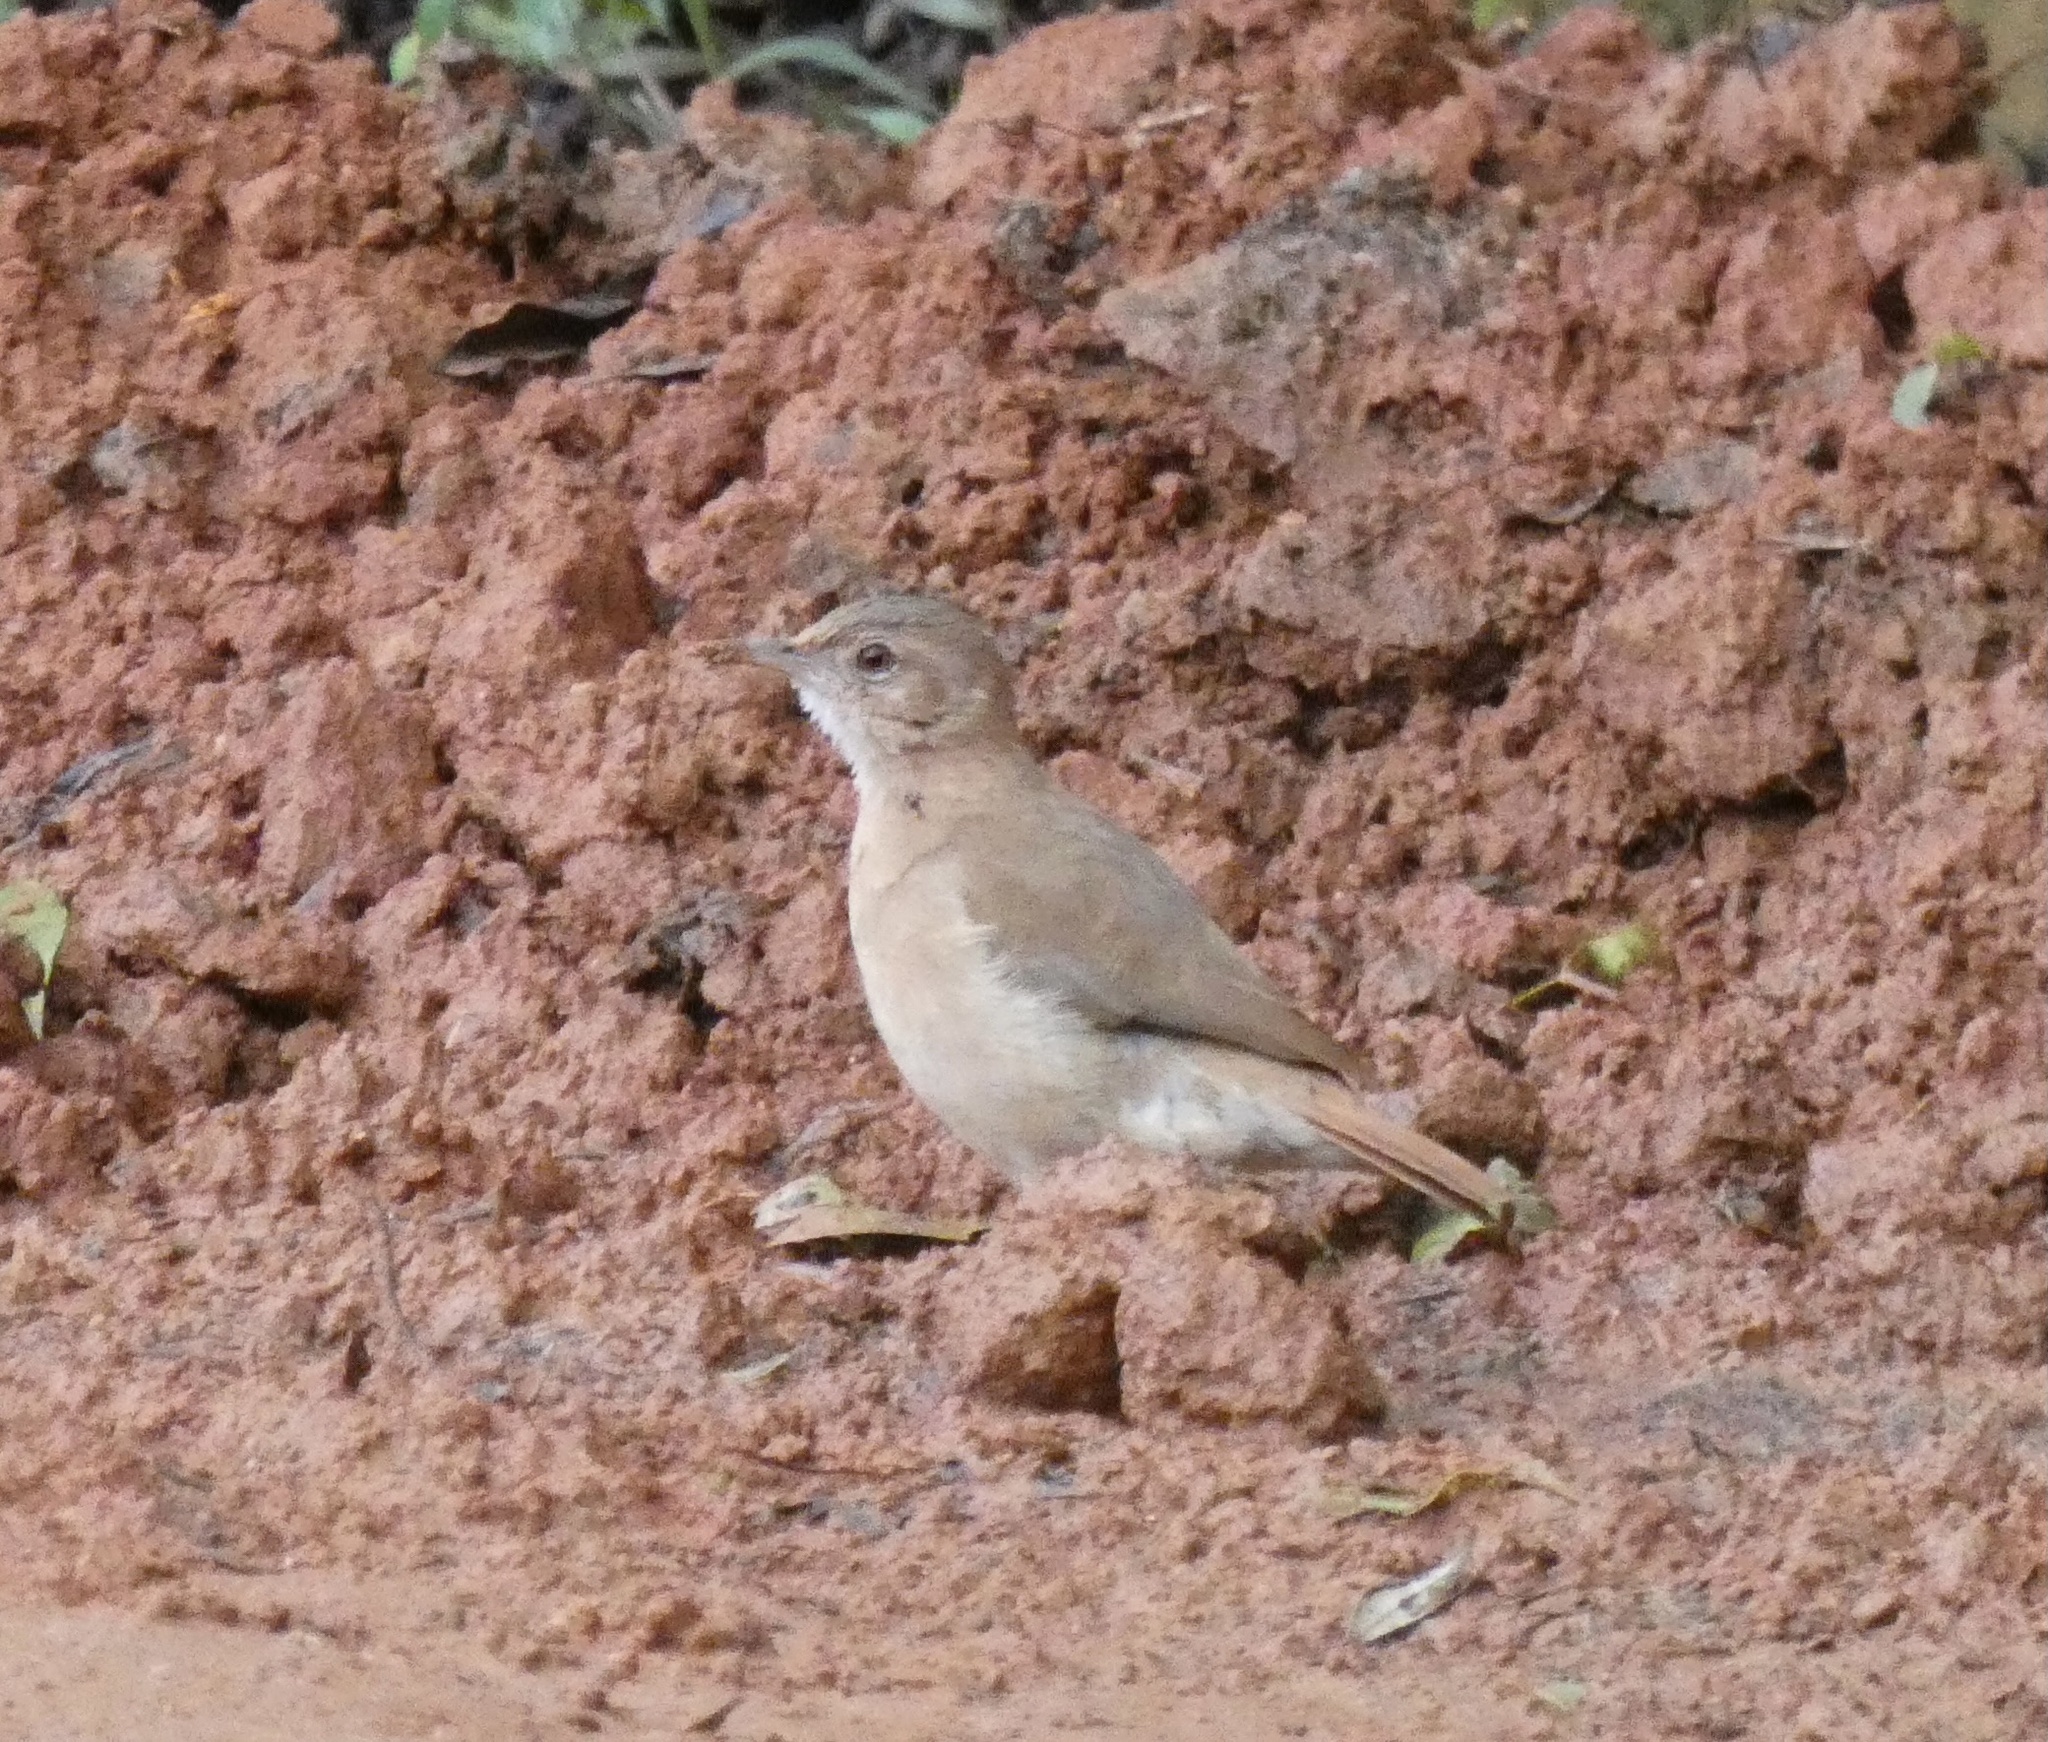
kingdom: Animalia
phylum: Chordata
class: Aves
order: Passeriformes
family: Furnariidae
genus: Furnarius
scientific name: Furnarius rufus
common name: Rufous hornero
